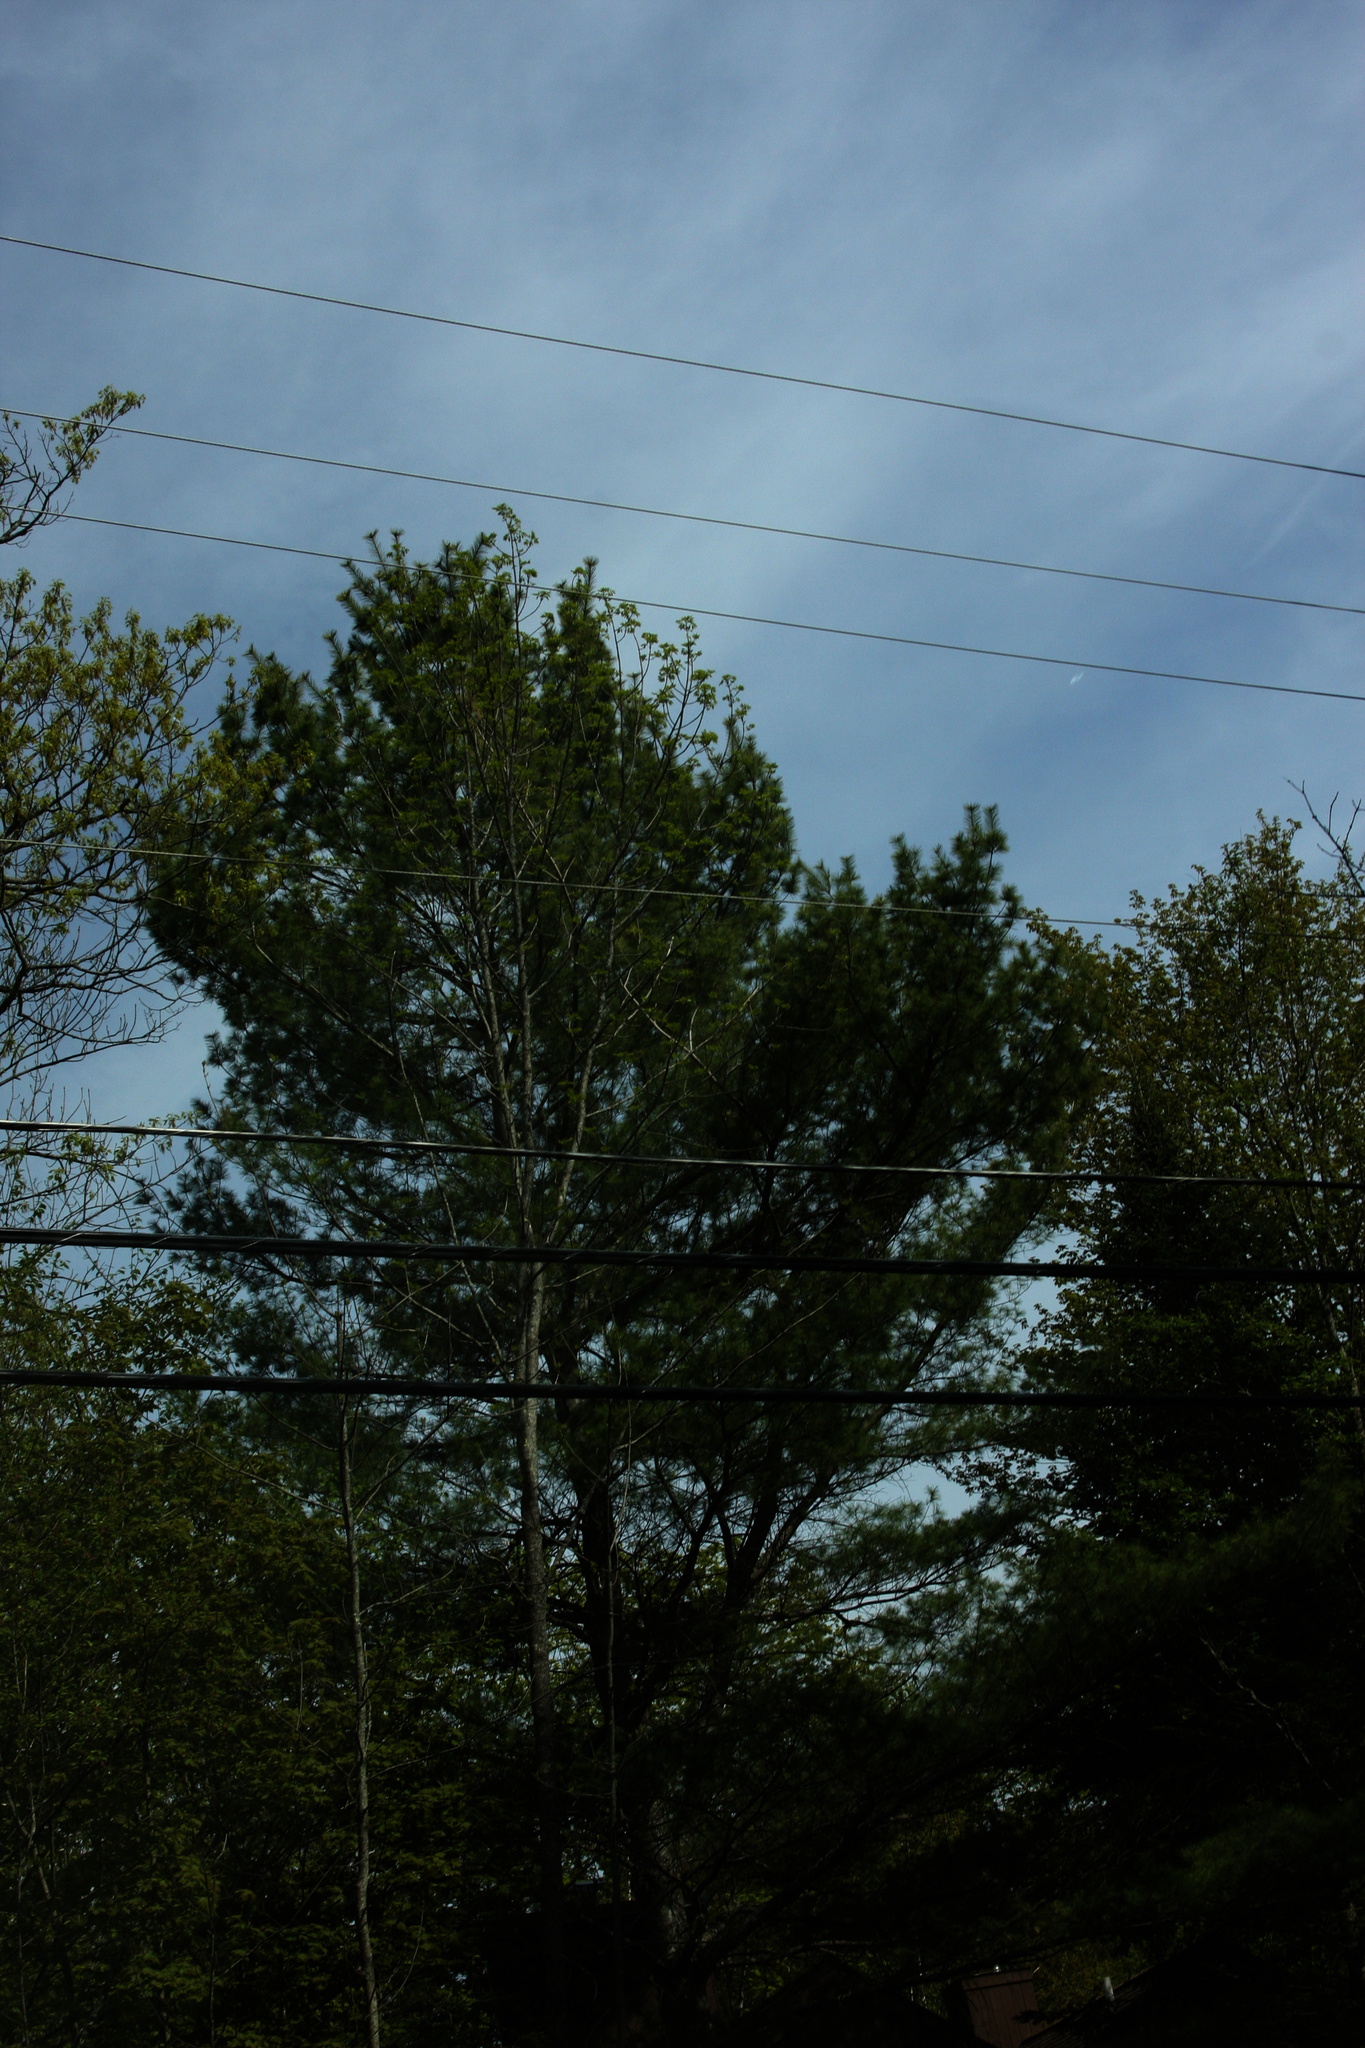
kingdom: Plantae
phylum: Tracheophyta
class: Pinopsida
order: Pinales
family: Pinaceae
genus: Pinus
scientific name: Pinus strobus
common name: Weymouth pine
